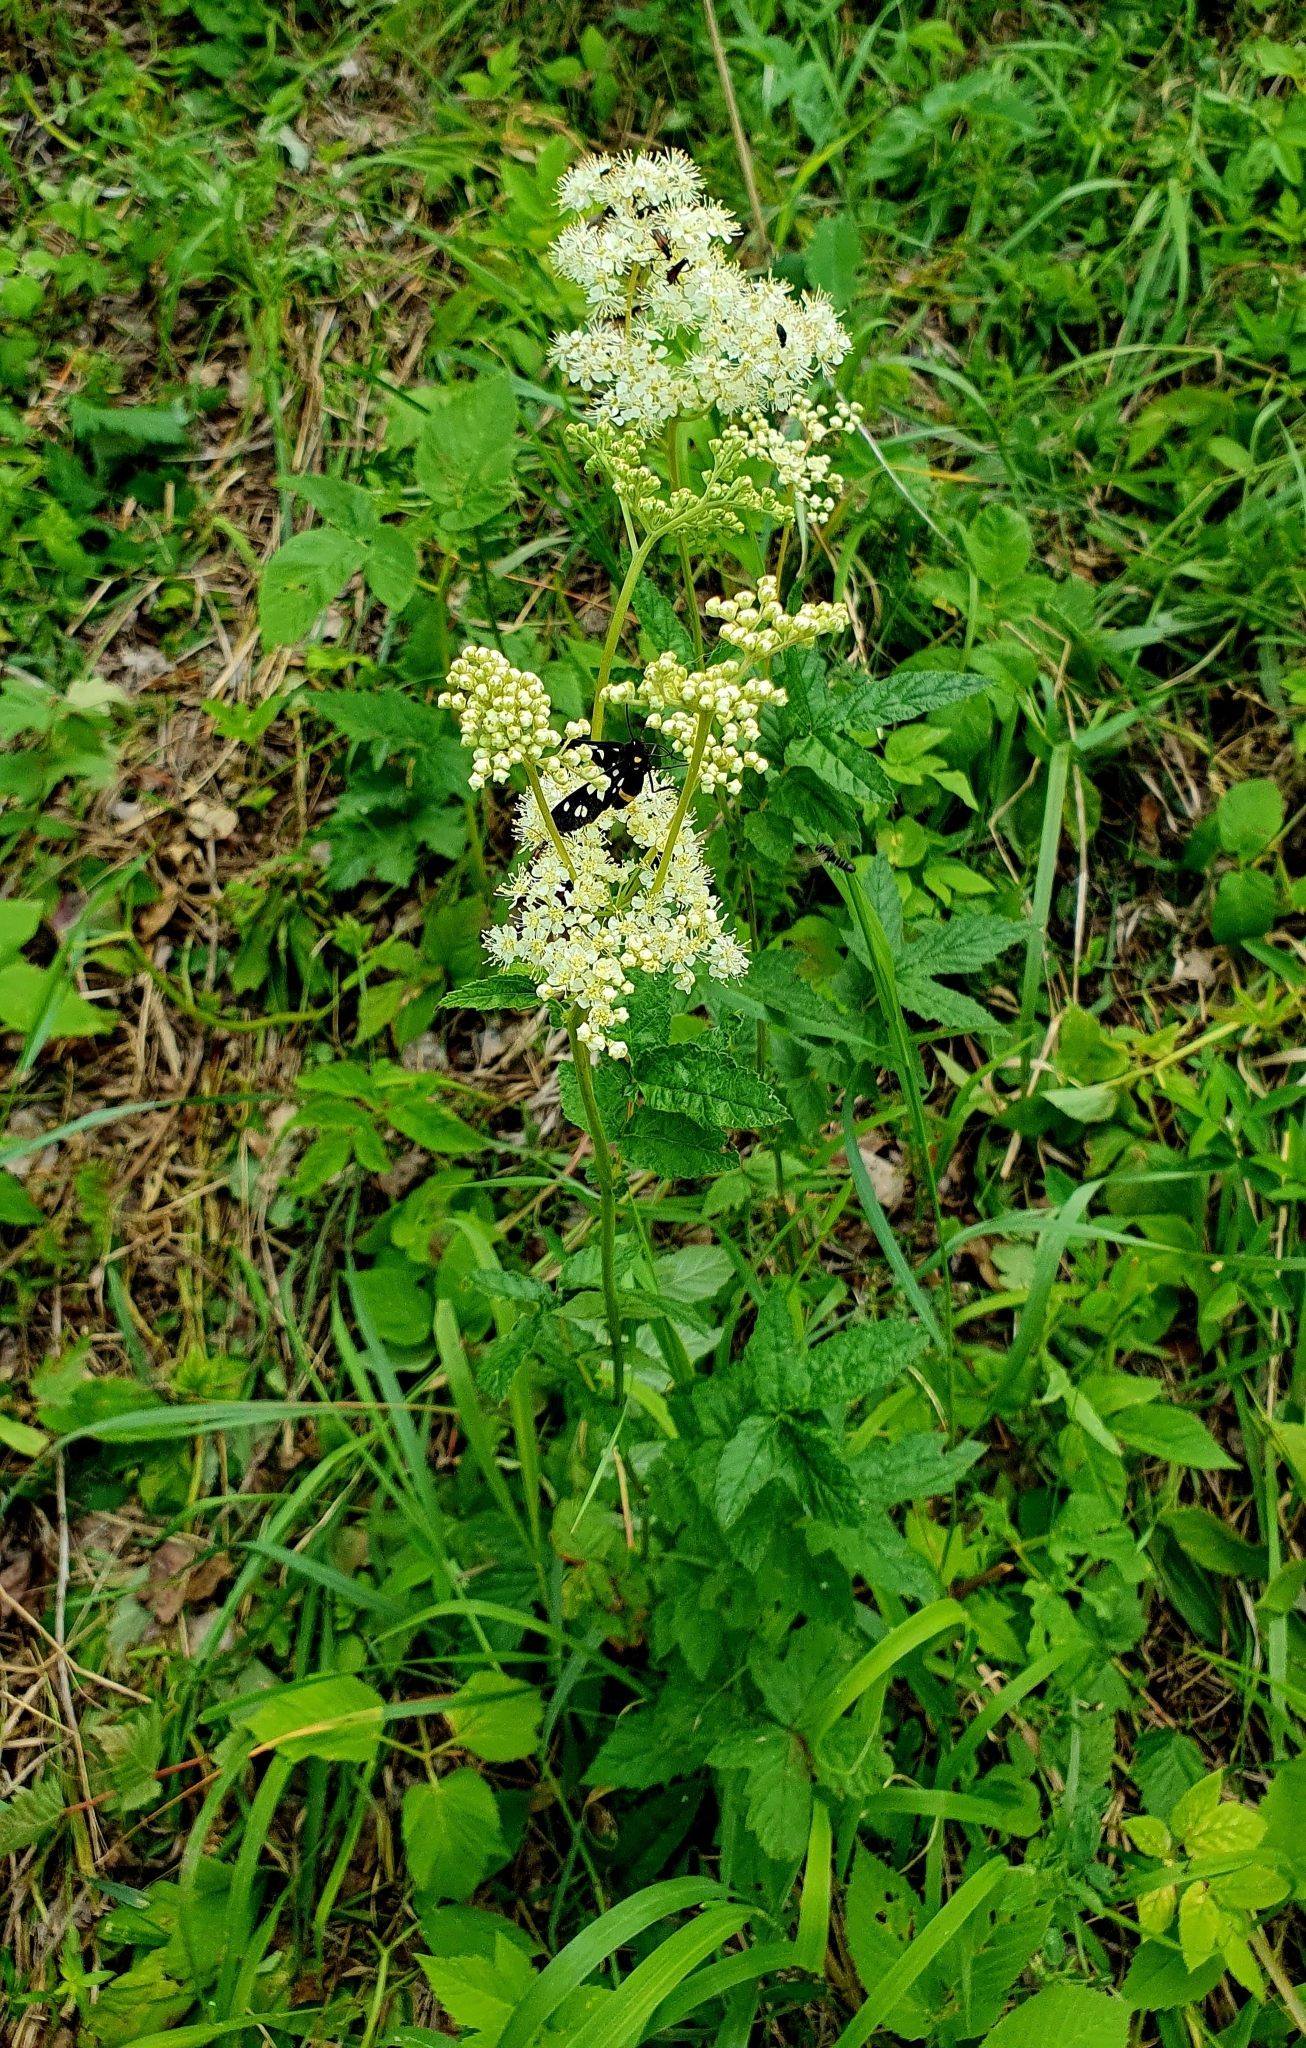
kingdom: Plantae
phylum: Tracheophyta
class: Magnoliopsida
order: Rosales
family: Rosaceae
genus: Filipendula
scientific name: Filipendula ulmaria
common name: Meadowsweet
